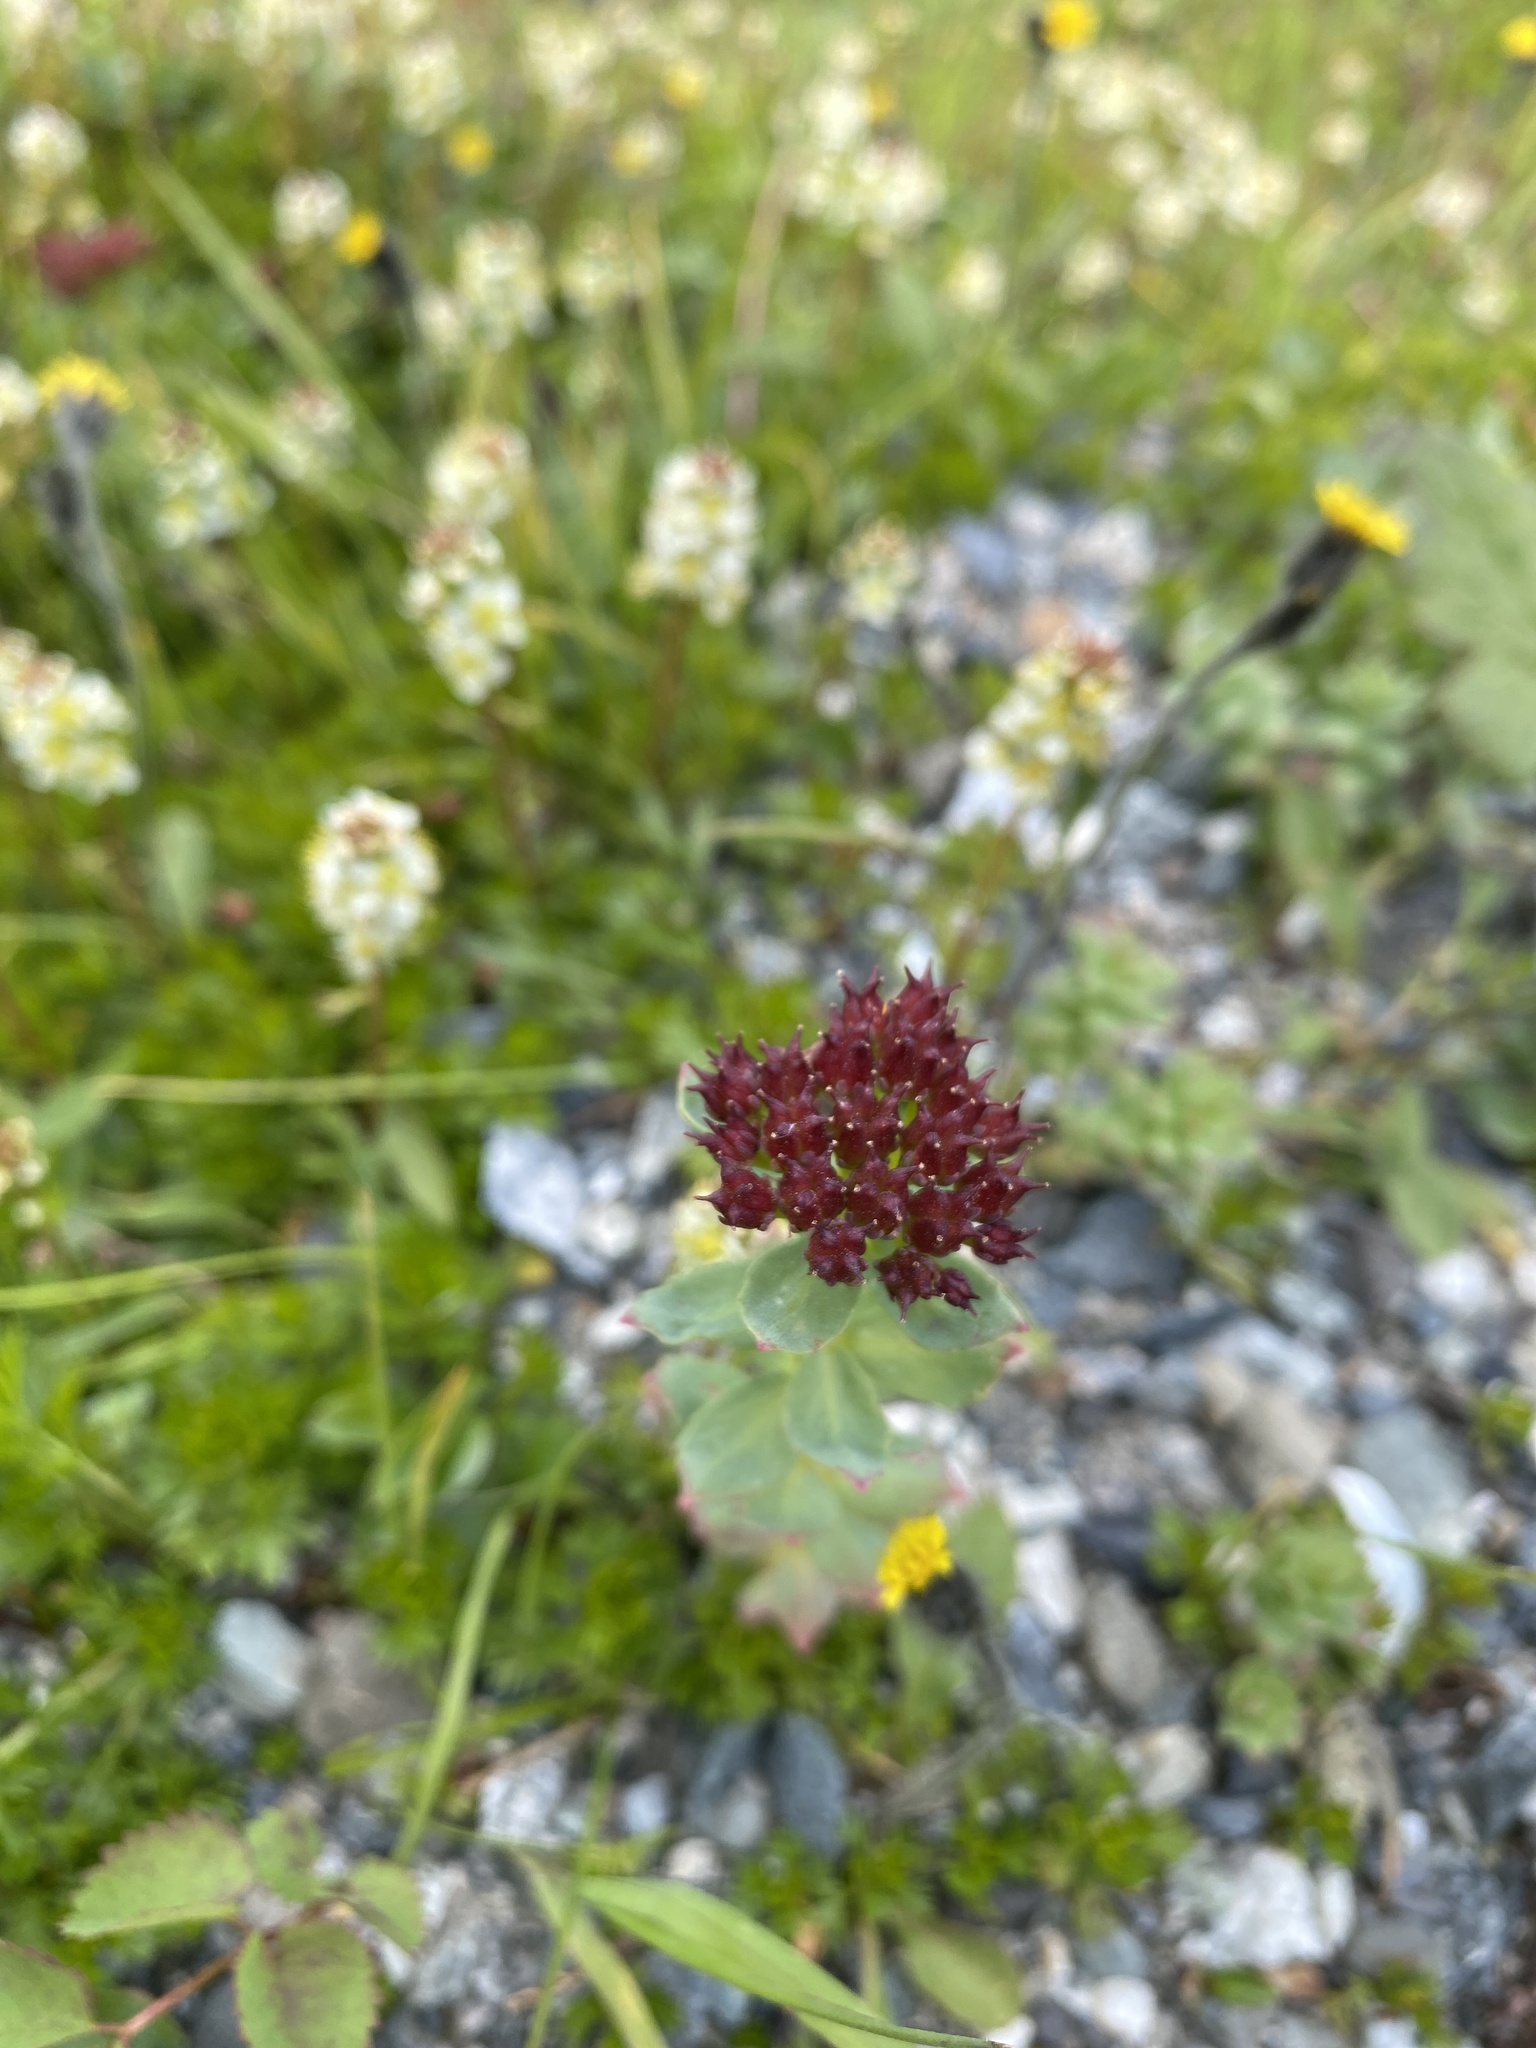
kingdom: Plantae
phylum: Tracheophyta
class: Magnoliopsida
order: Saxifragales
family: Crassulaceae
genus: Rhodiola
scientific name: Rhodiola integrifolia
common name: Western roseroot
